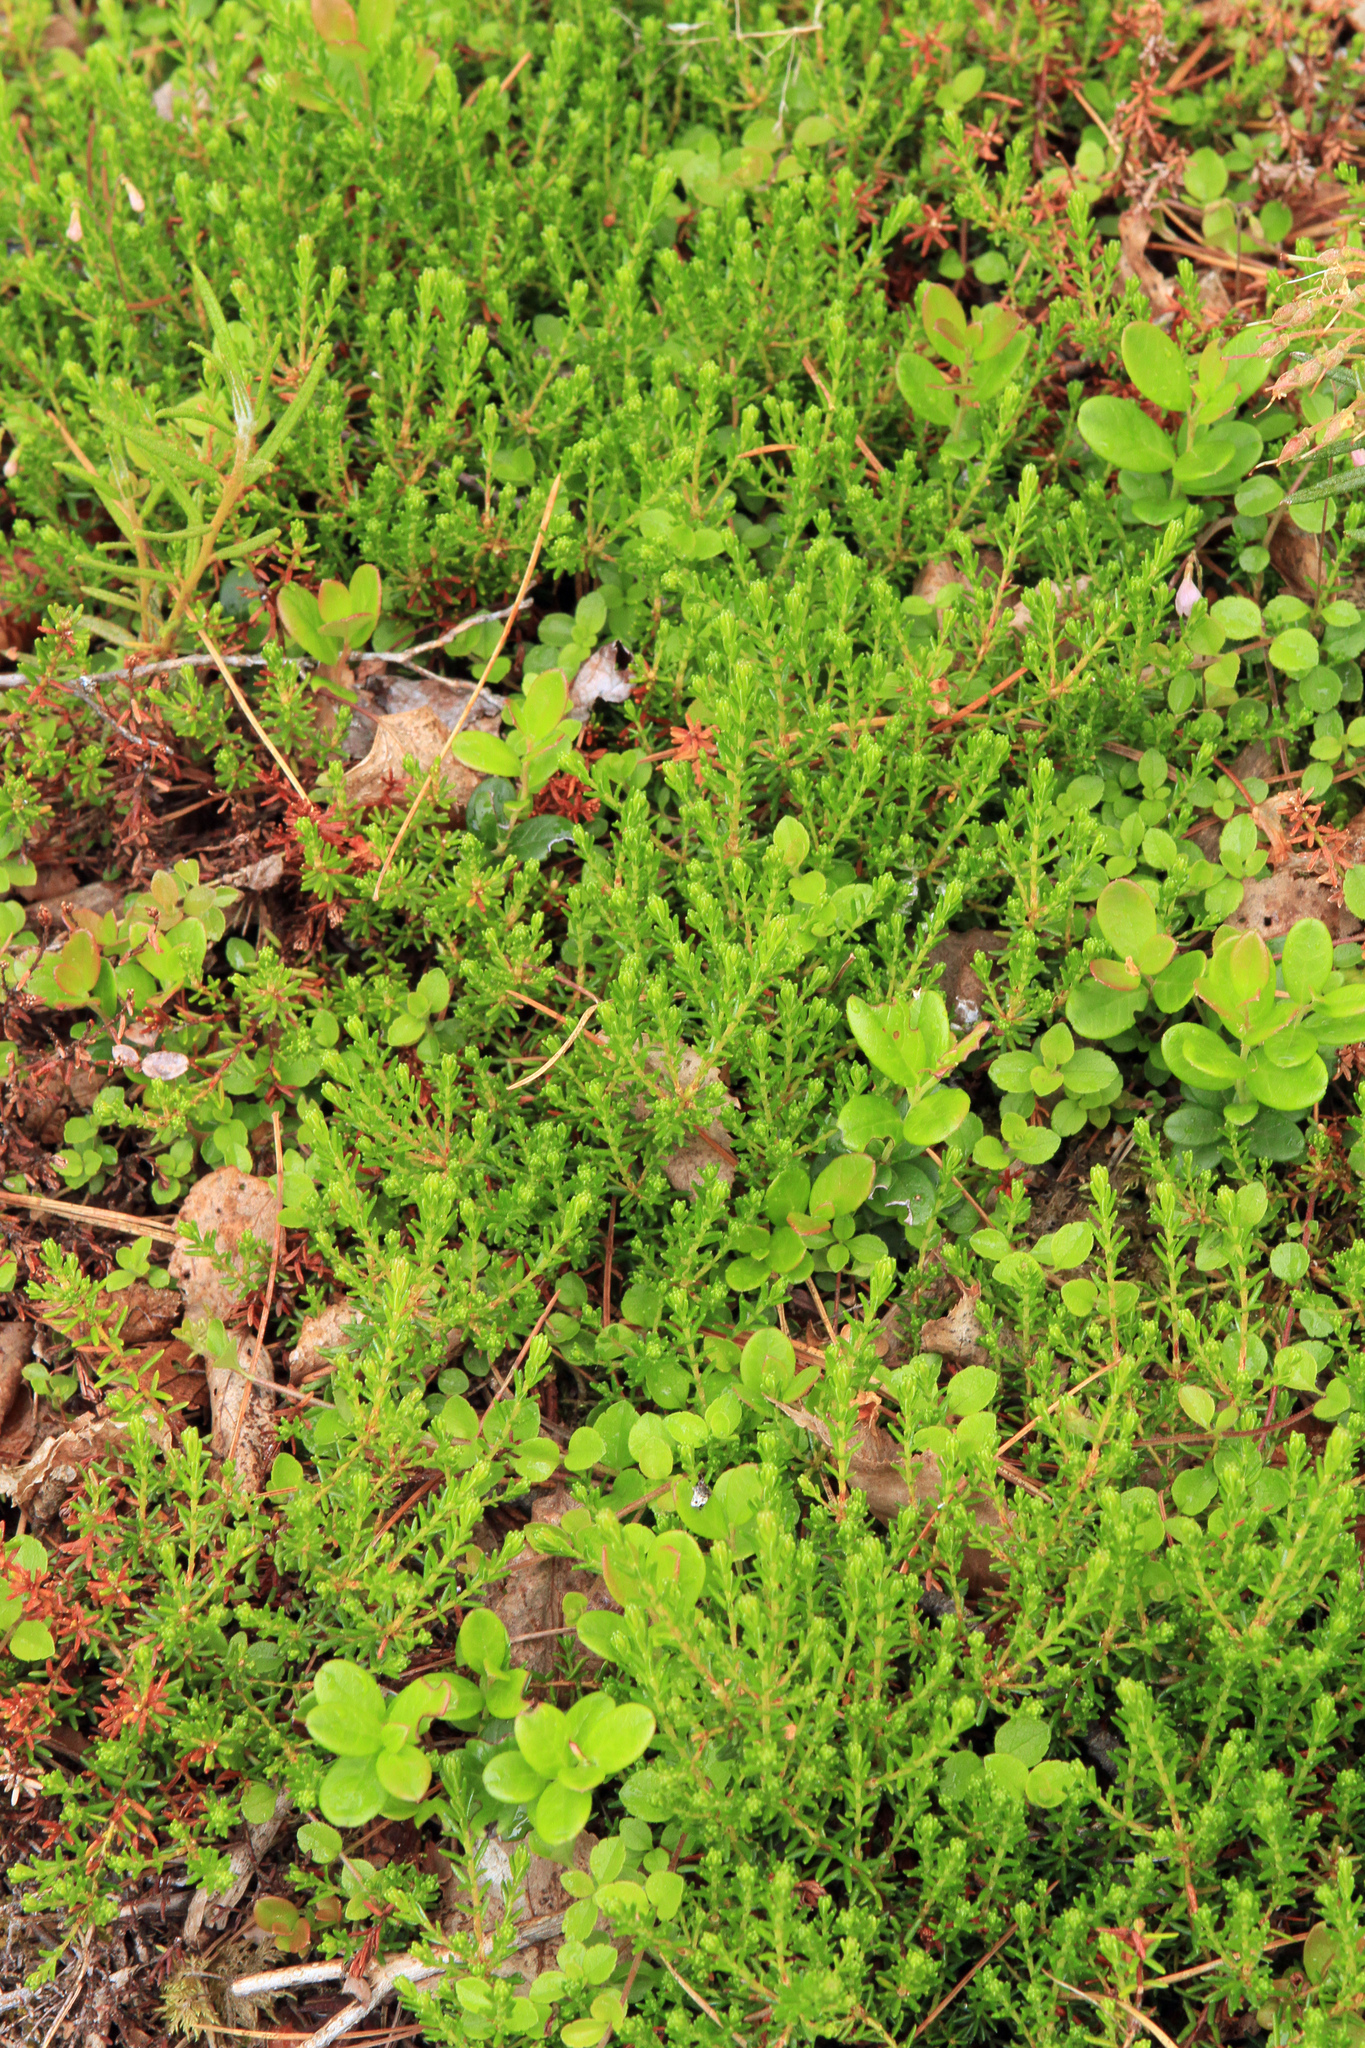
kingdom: Plantae
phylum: Tracheophyta
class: Magnoliopsida
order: Ericales
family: Ericaceae
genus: Empetrum
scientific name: Empetrum nigrum
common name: Black crowberry
